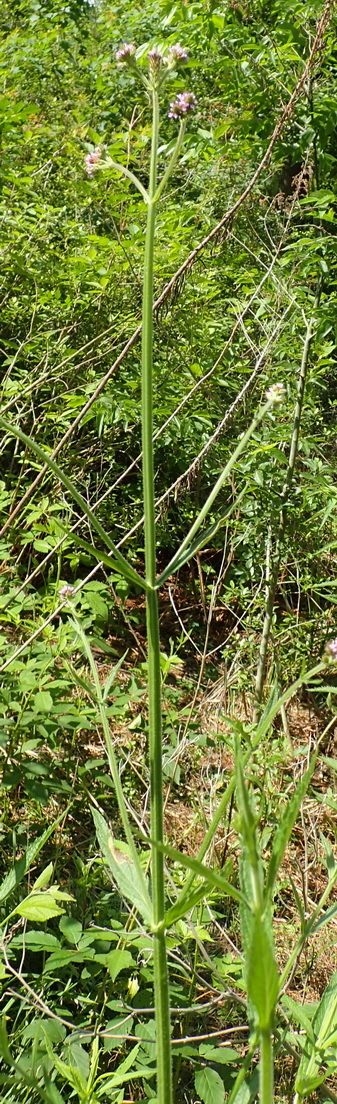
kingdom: Plantae
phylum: Tracheophyta
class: Magnoliopsida
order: Lamiales
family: Verbenaceae
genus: Verbena
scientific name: Verbena brasiliensis
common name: Brazilian vervain
